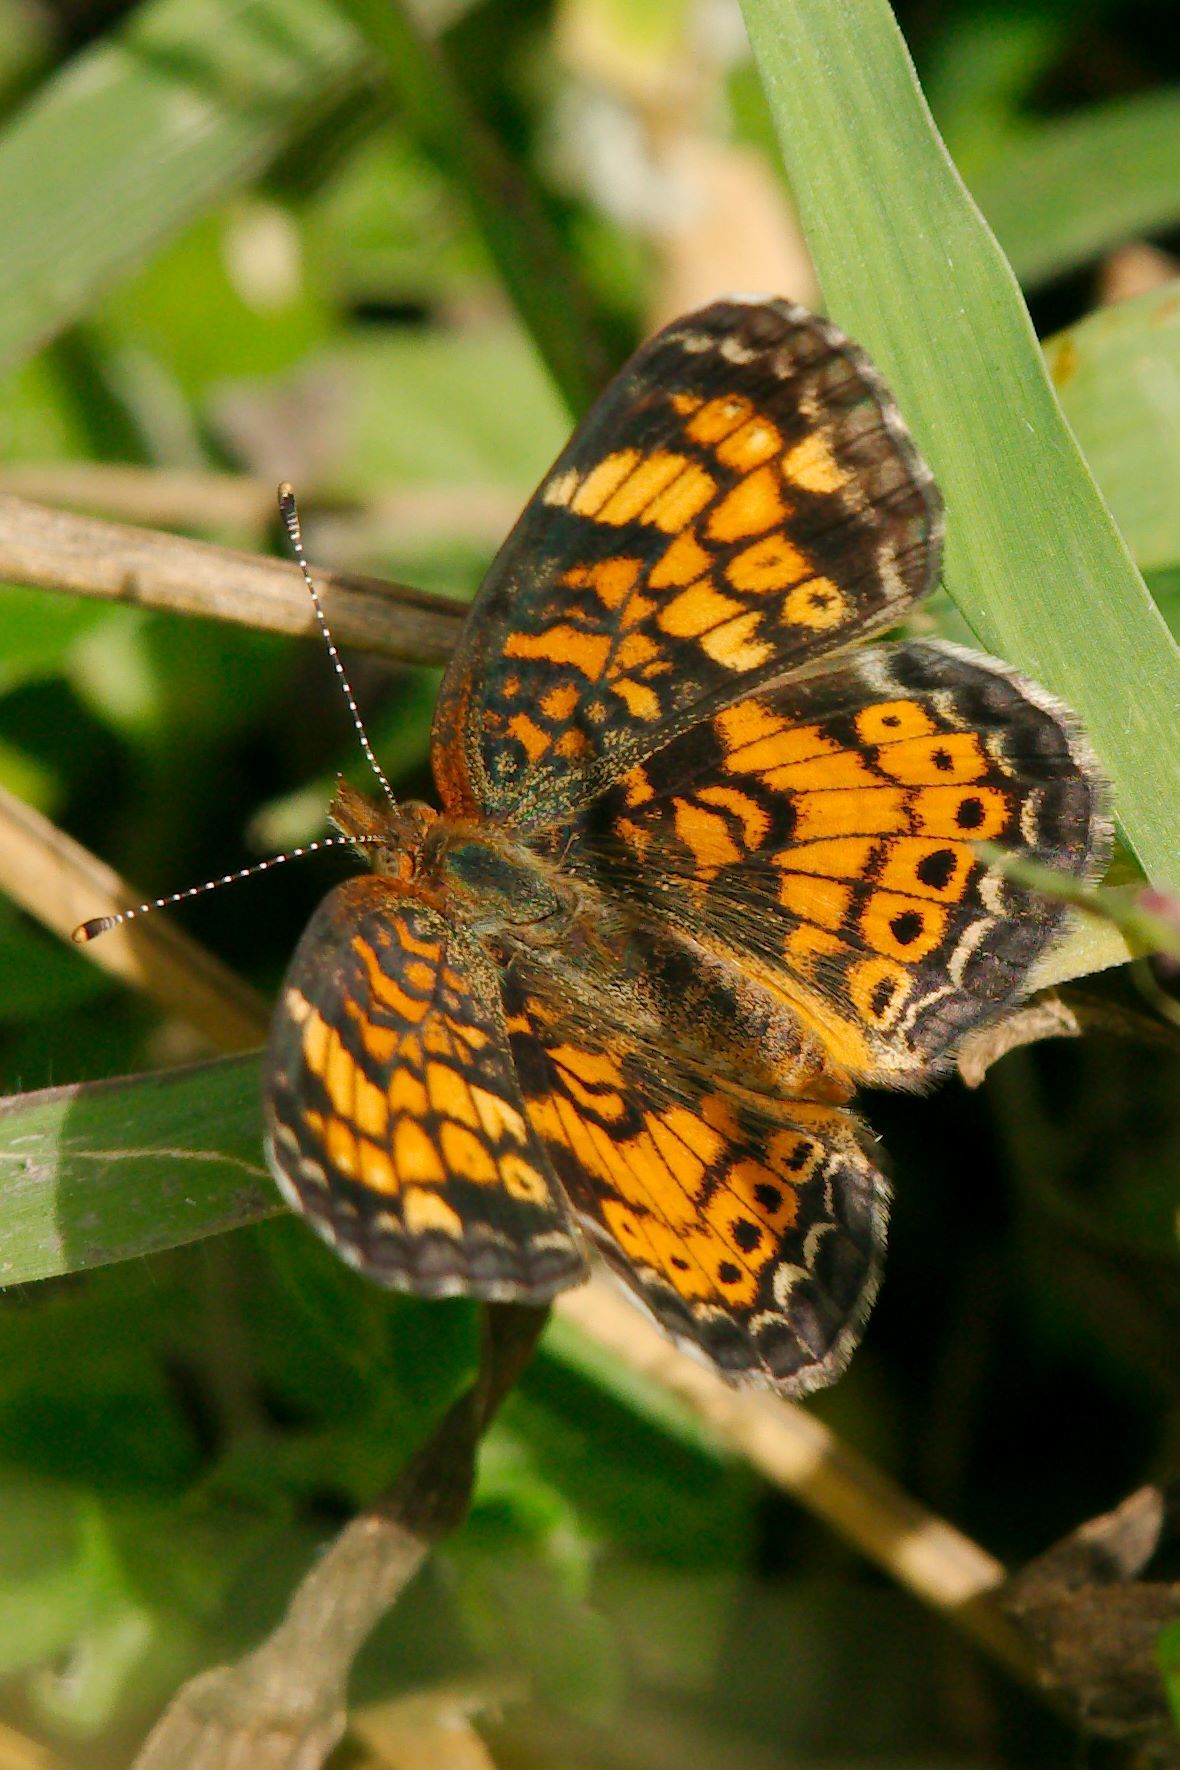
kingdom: Animalia
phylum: Arthropoda
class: Insecta
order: Lepidoptera
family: Nymphalidae
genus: Phyciodes
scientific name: Phyciodes tharos
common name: Pearl crescent
